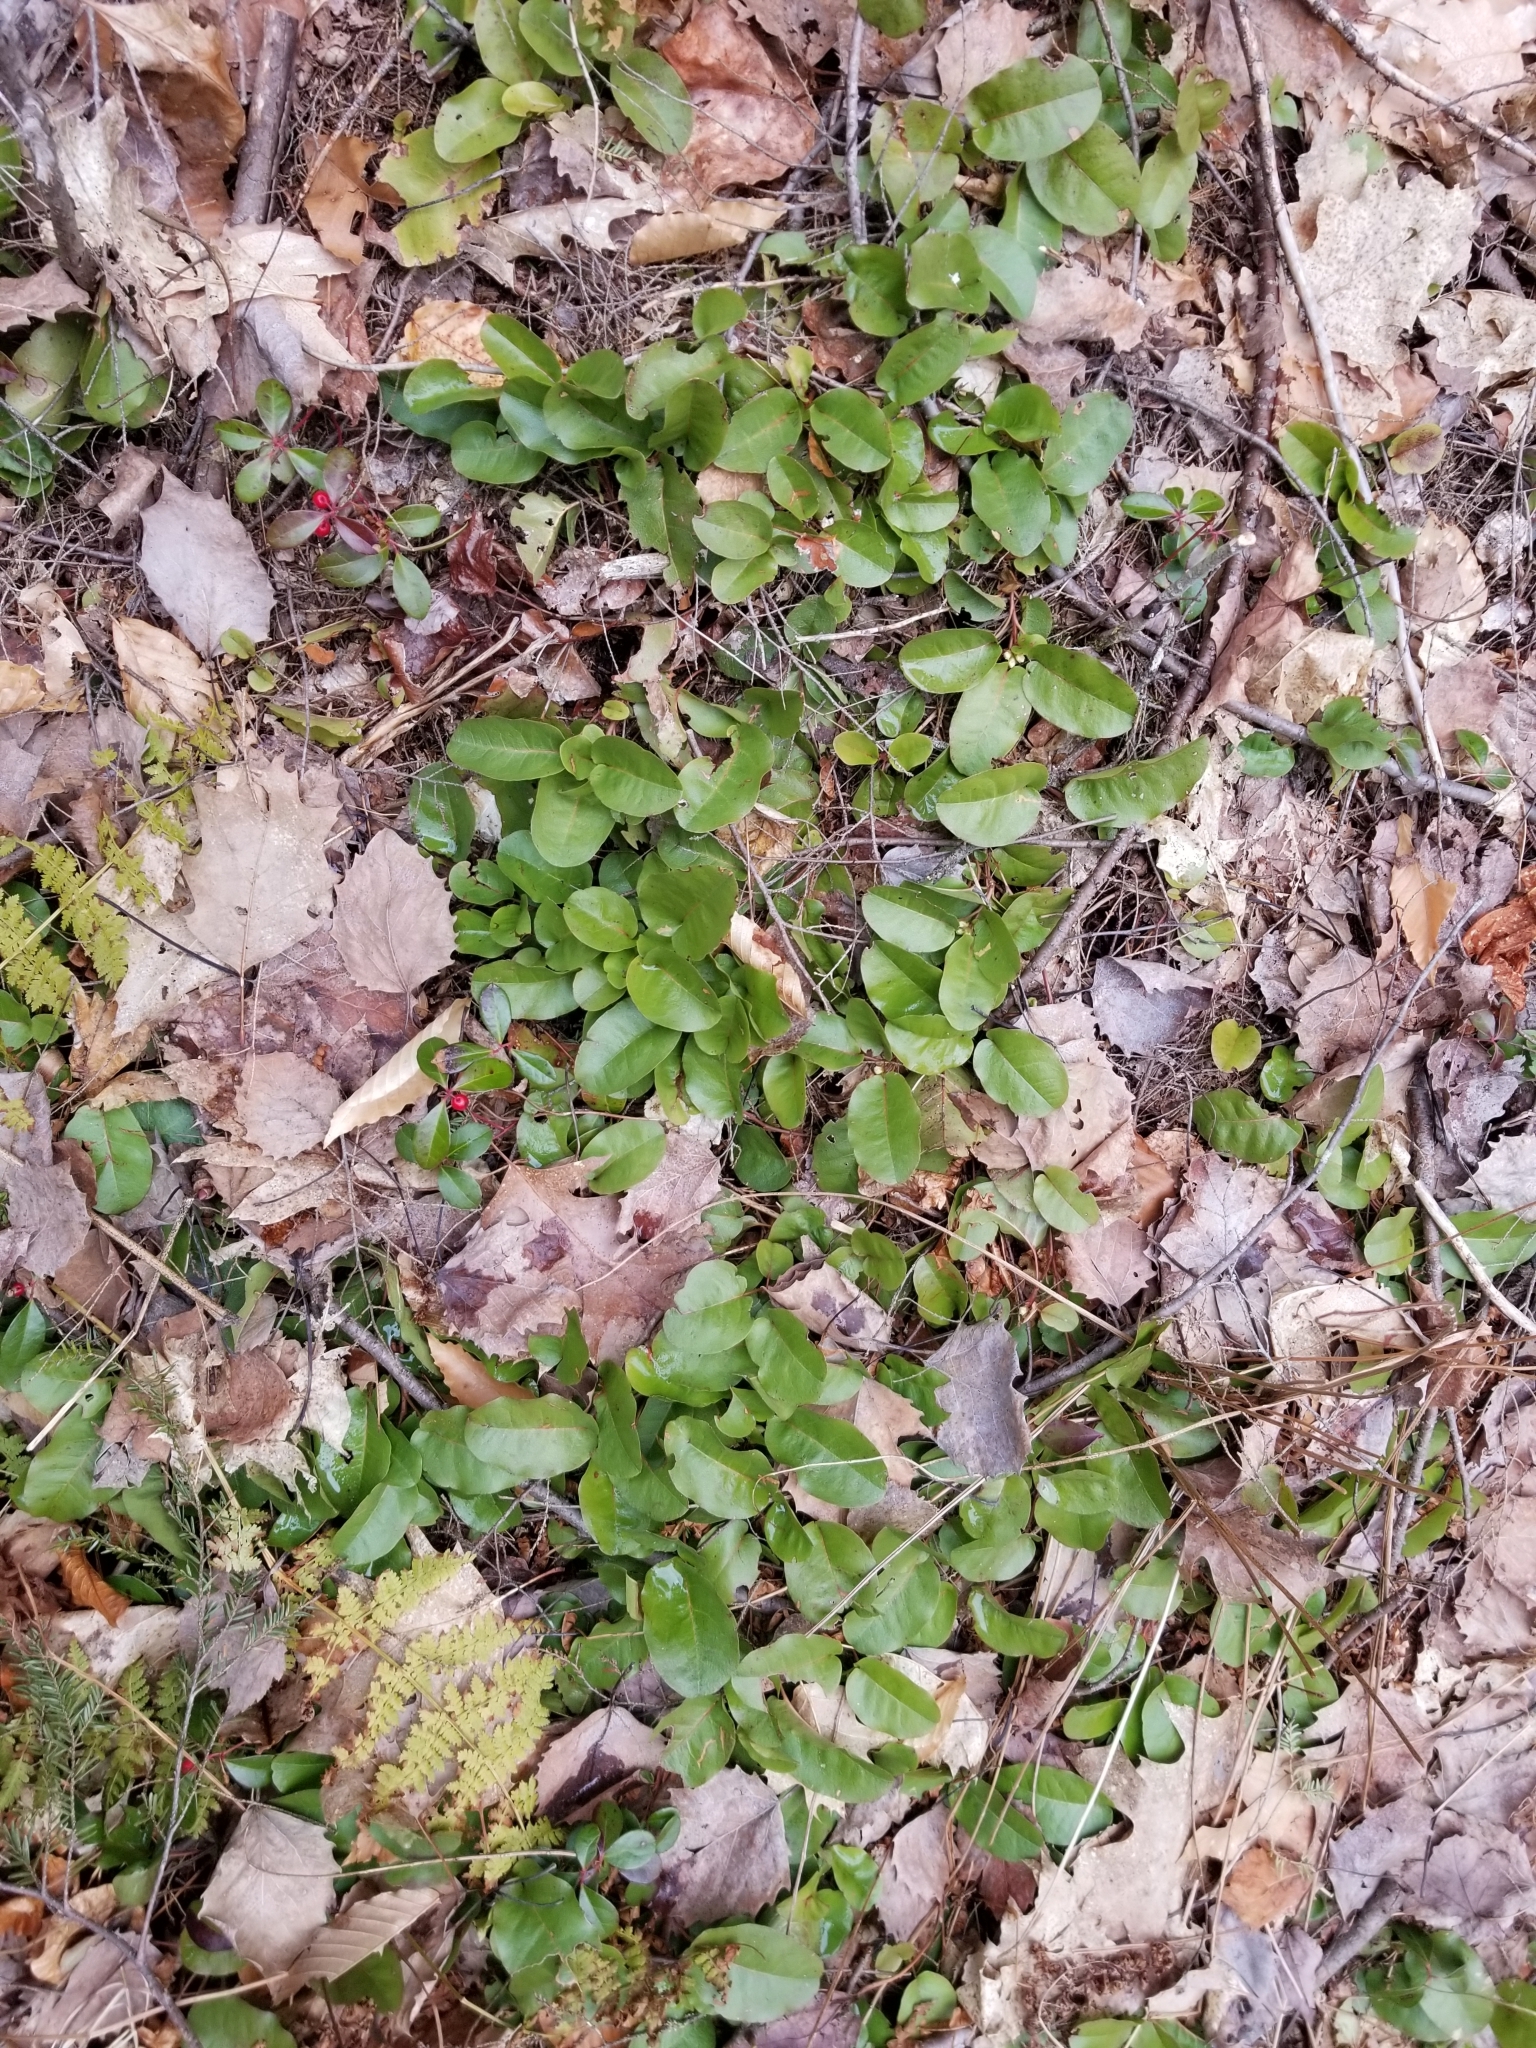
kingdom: Plantae
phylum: Tracheophyta
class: Magnoliopsida
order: Ericales
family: Ericaceae
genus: Epigaea
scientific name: Epigaea repens
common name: Gravelroot
